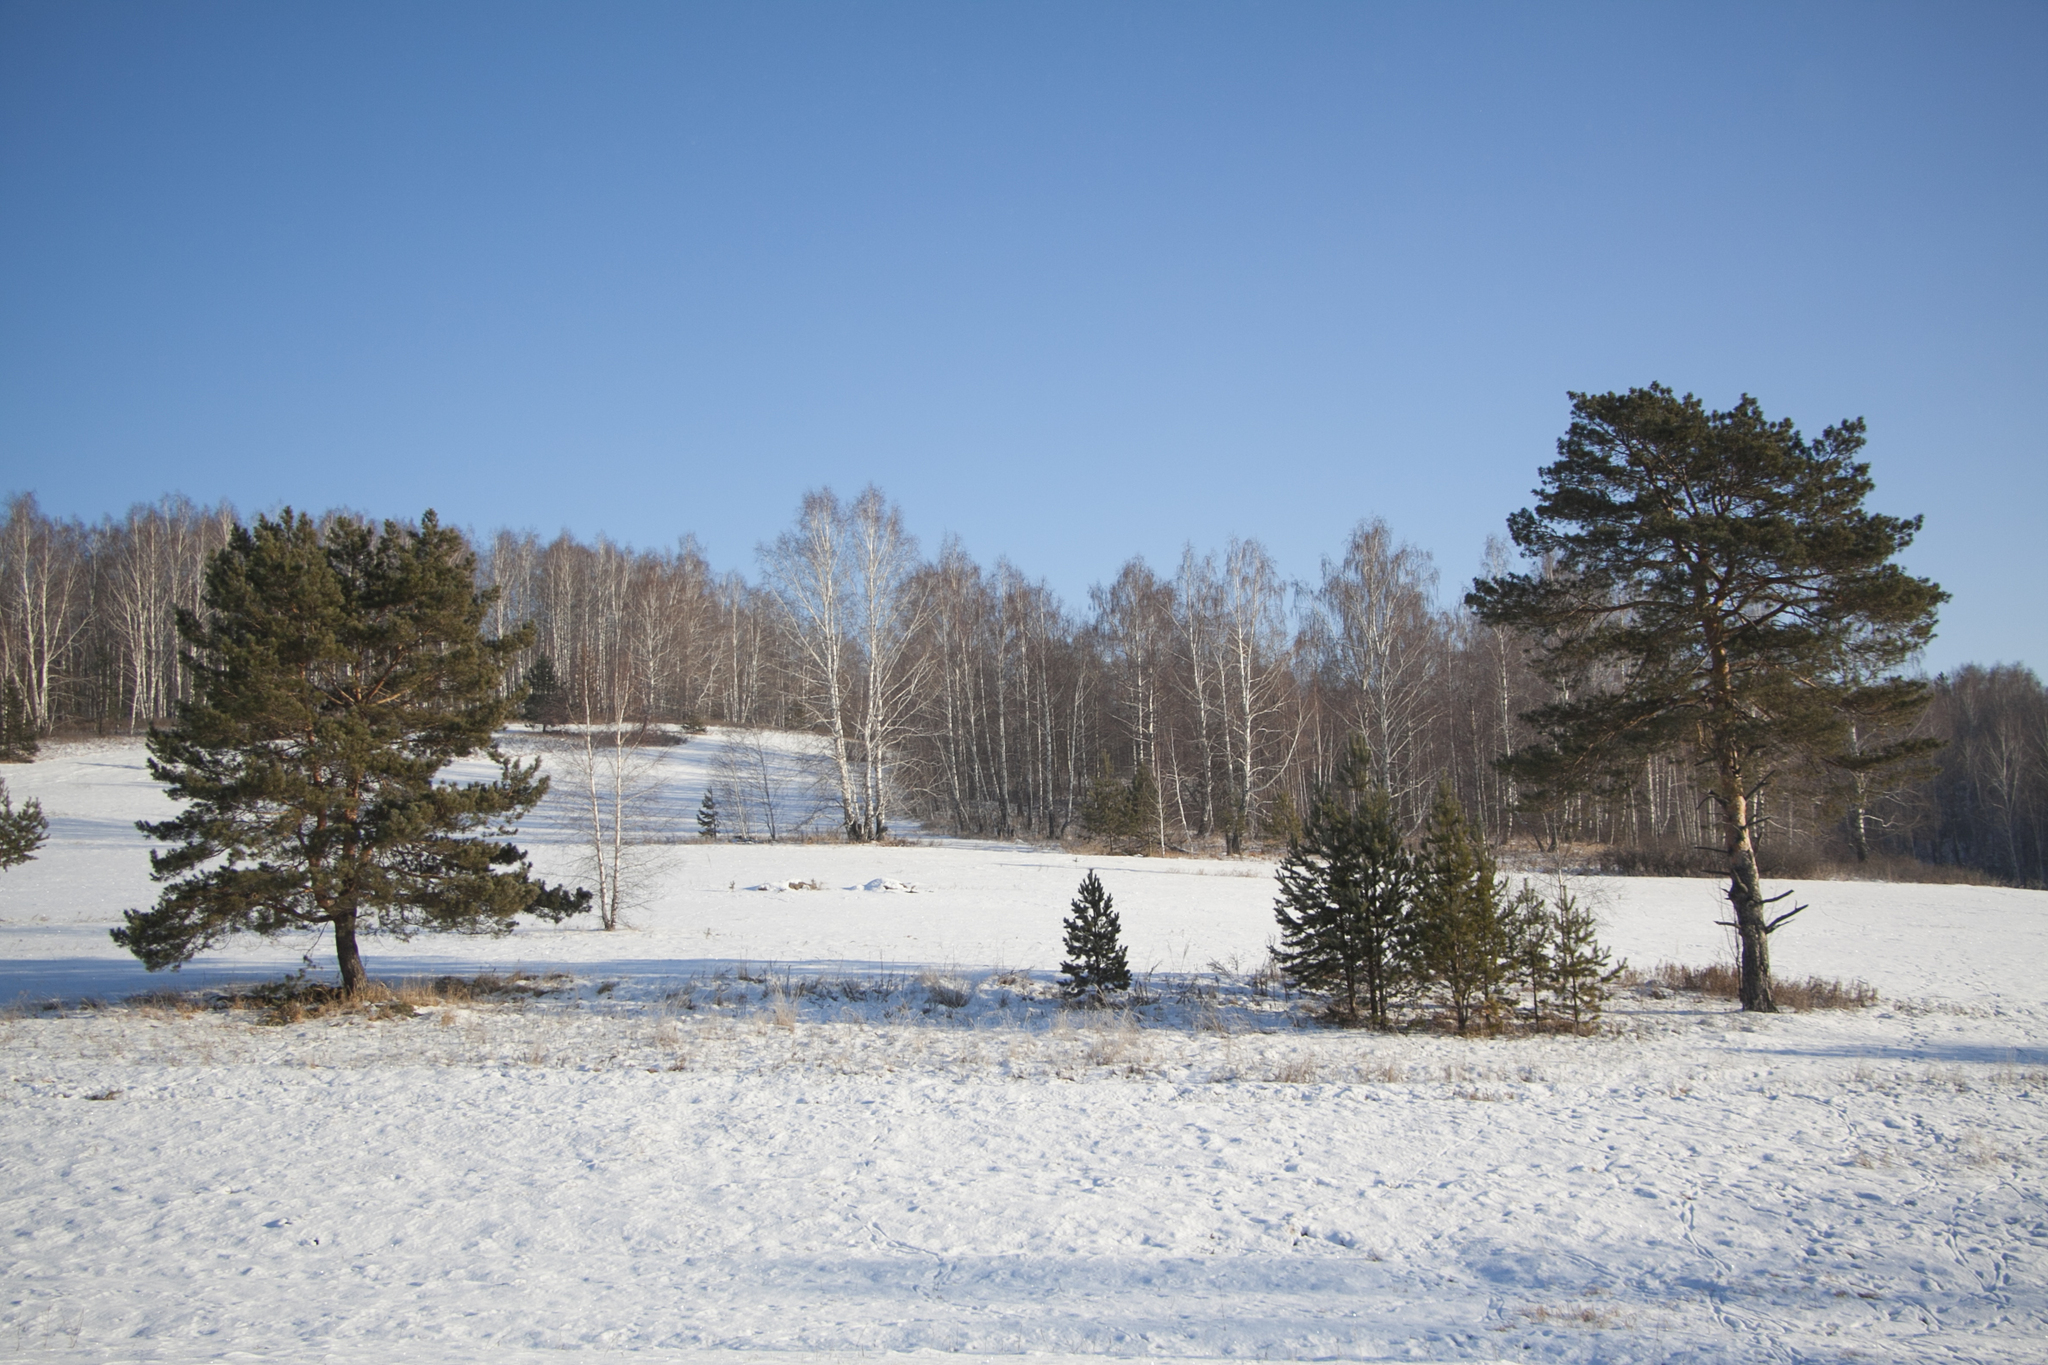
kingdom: Plantae
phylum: Tracheophyta
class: Pinopsida
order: Pinales
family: Pinaceae
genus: Pinus
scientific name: Pinus sylvestris
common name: Scots pine
